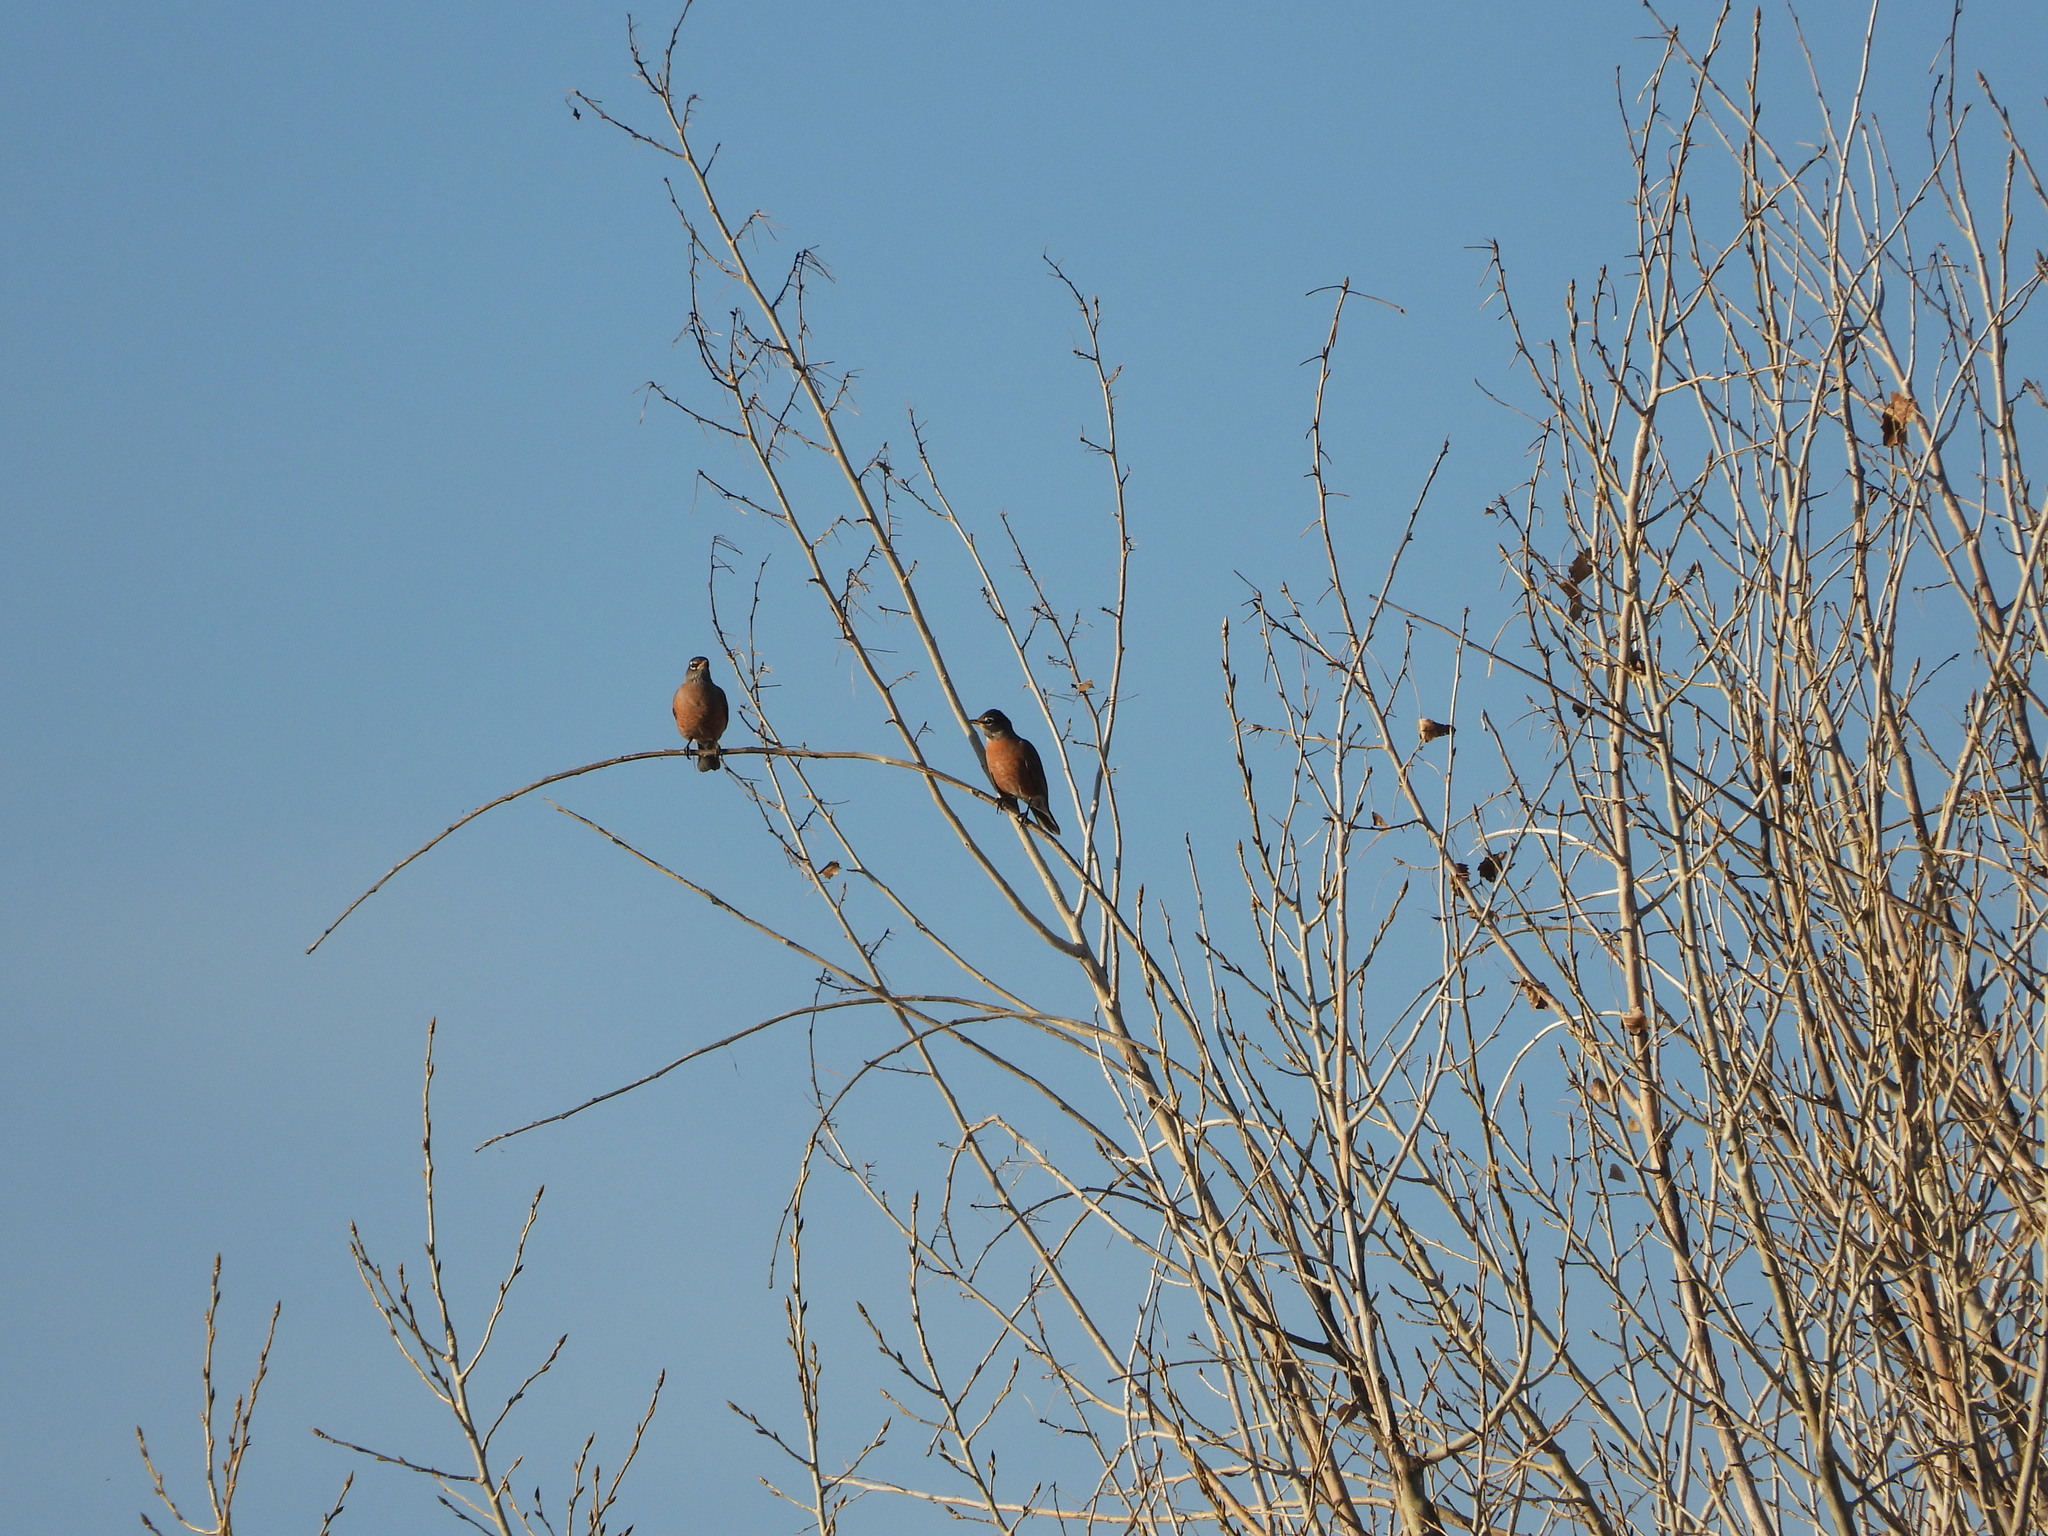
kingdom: Animalia
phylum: Chordata
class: Aves
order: Passeriformes
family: Turdidae
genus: Turdus
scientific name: Turdus migratorius
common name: American robin
